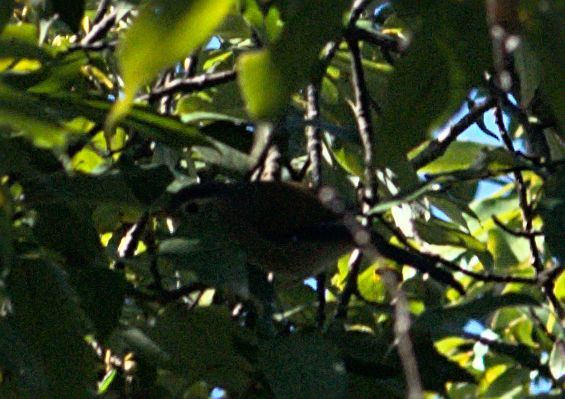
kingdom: Animalia
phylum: Chordata
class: Aves
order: Passeriformes
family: Leiothrichidae
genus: Minla
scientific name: Minla cyanouroptera
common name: Blue-winged minla
